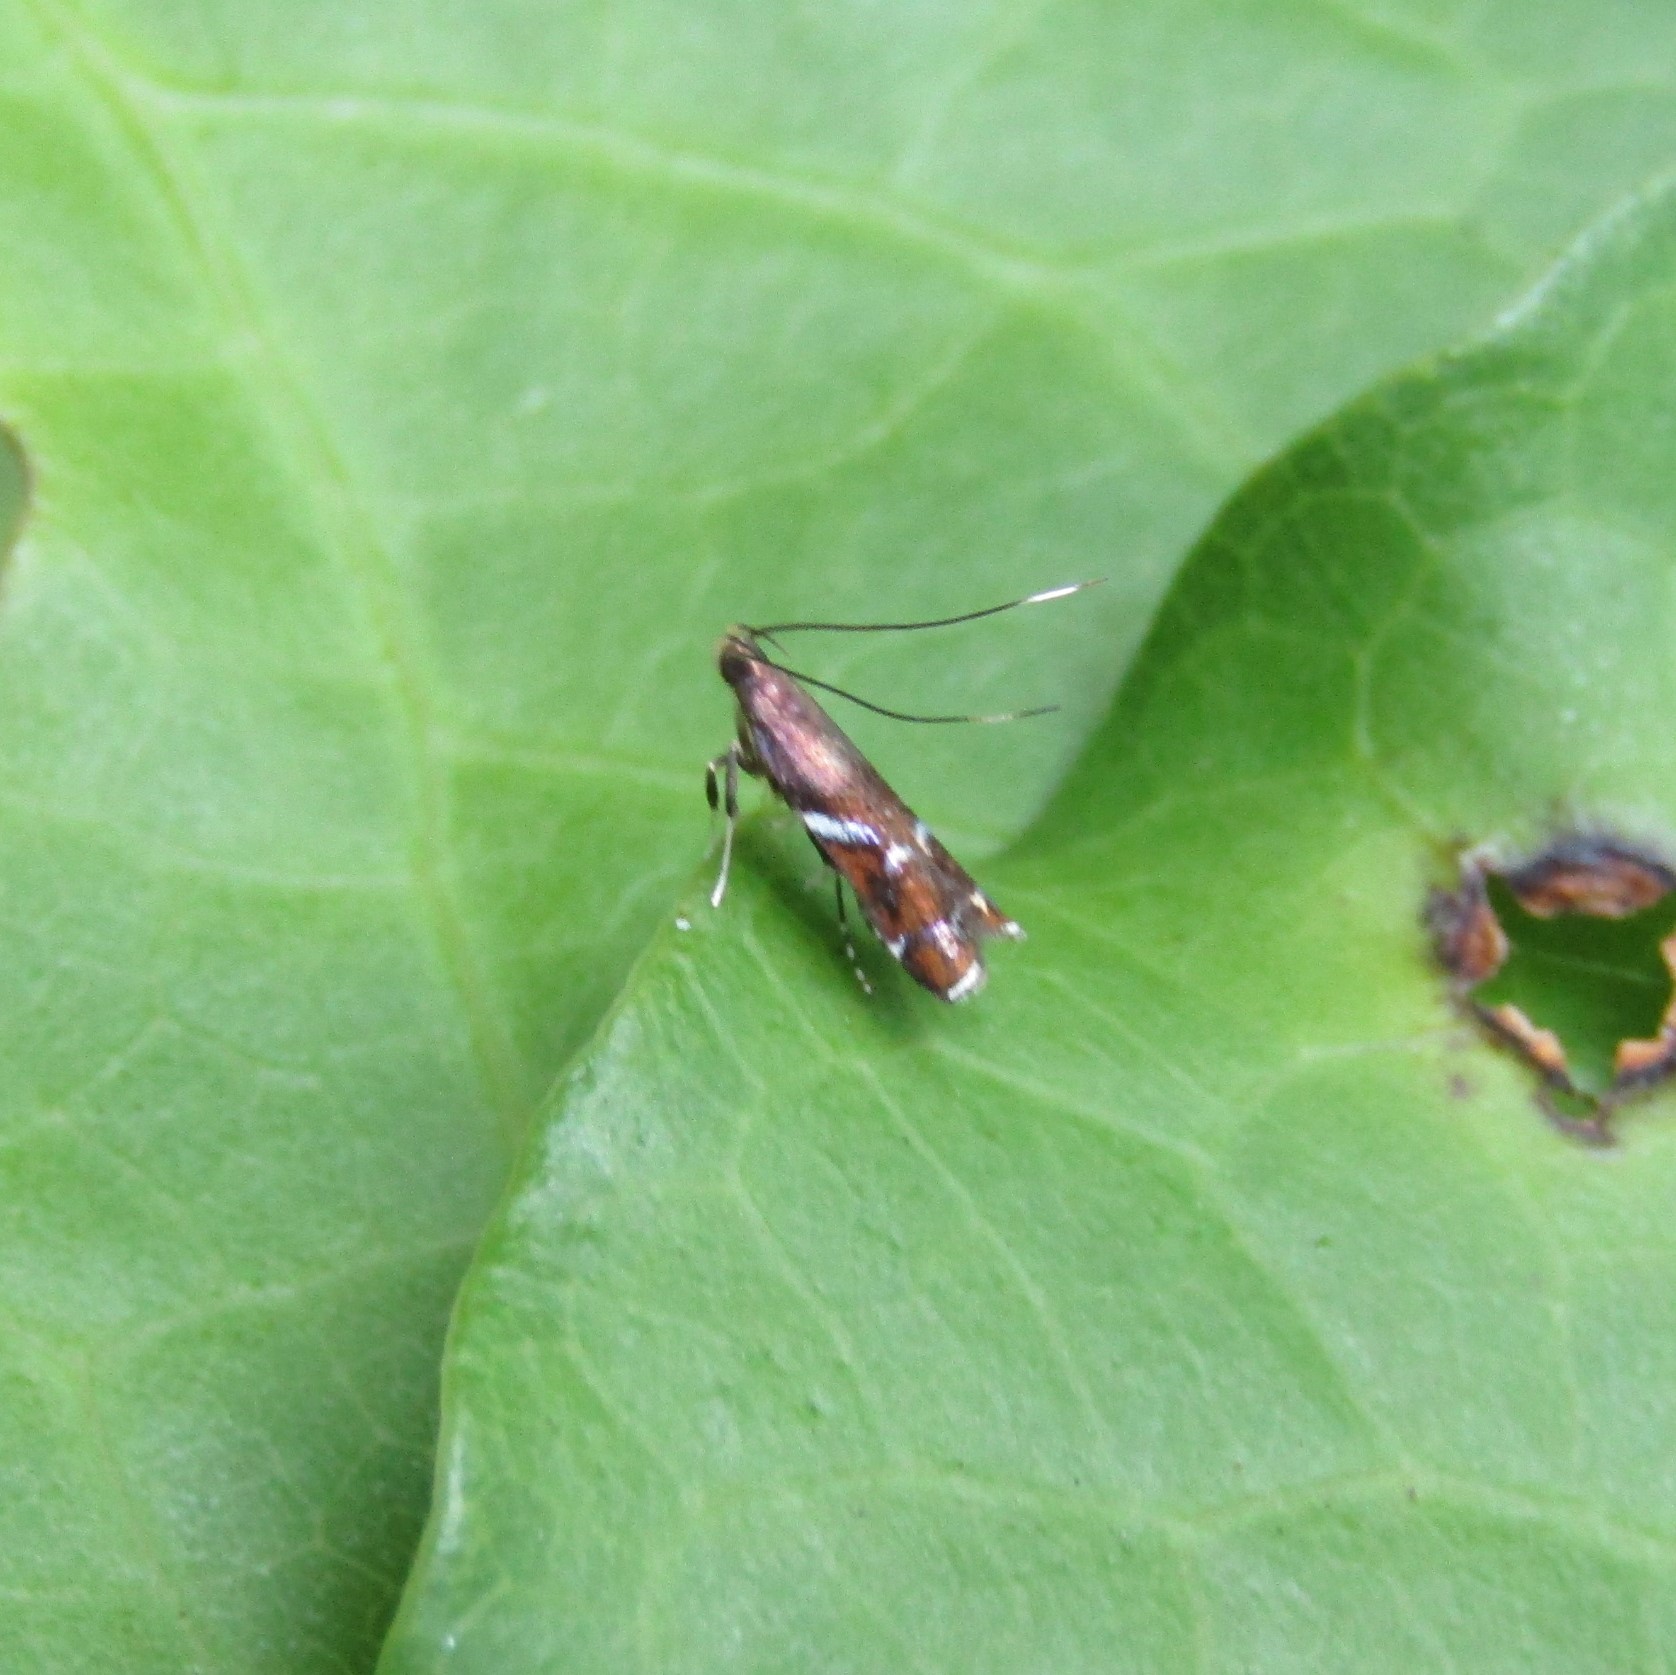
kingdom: Animalia
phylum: Arthropoda
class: Insecta
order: Lepidoptera
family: Depressariidae
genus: Compsistis
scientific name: Compsistis bifaciella
